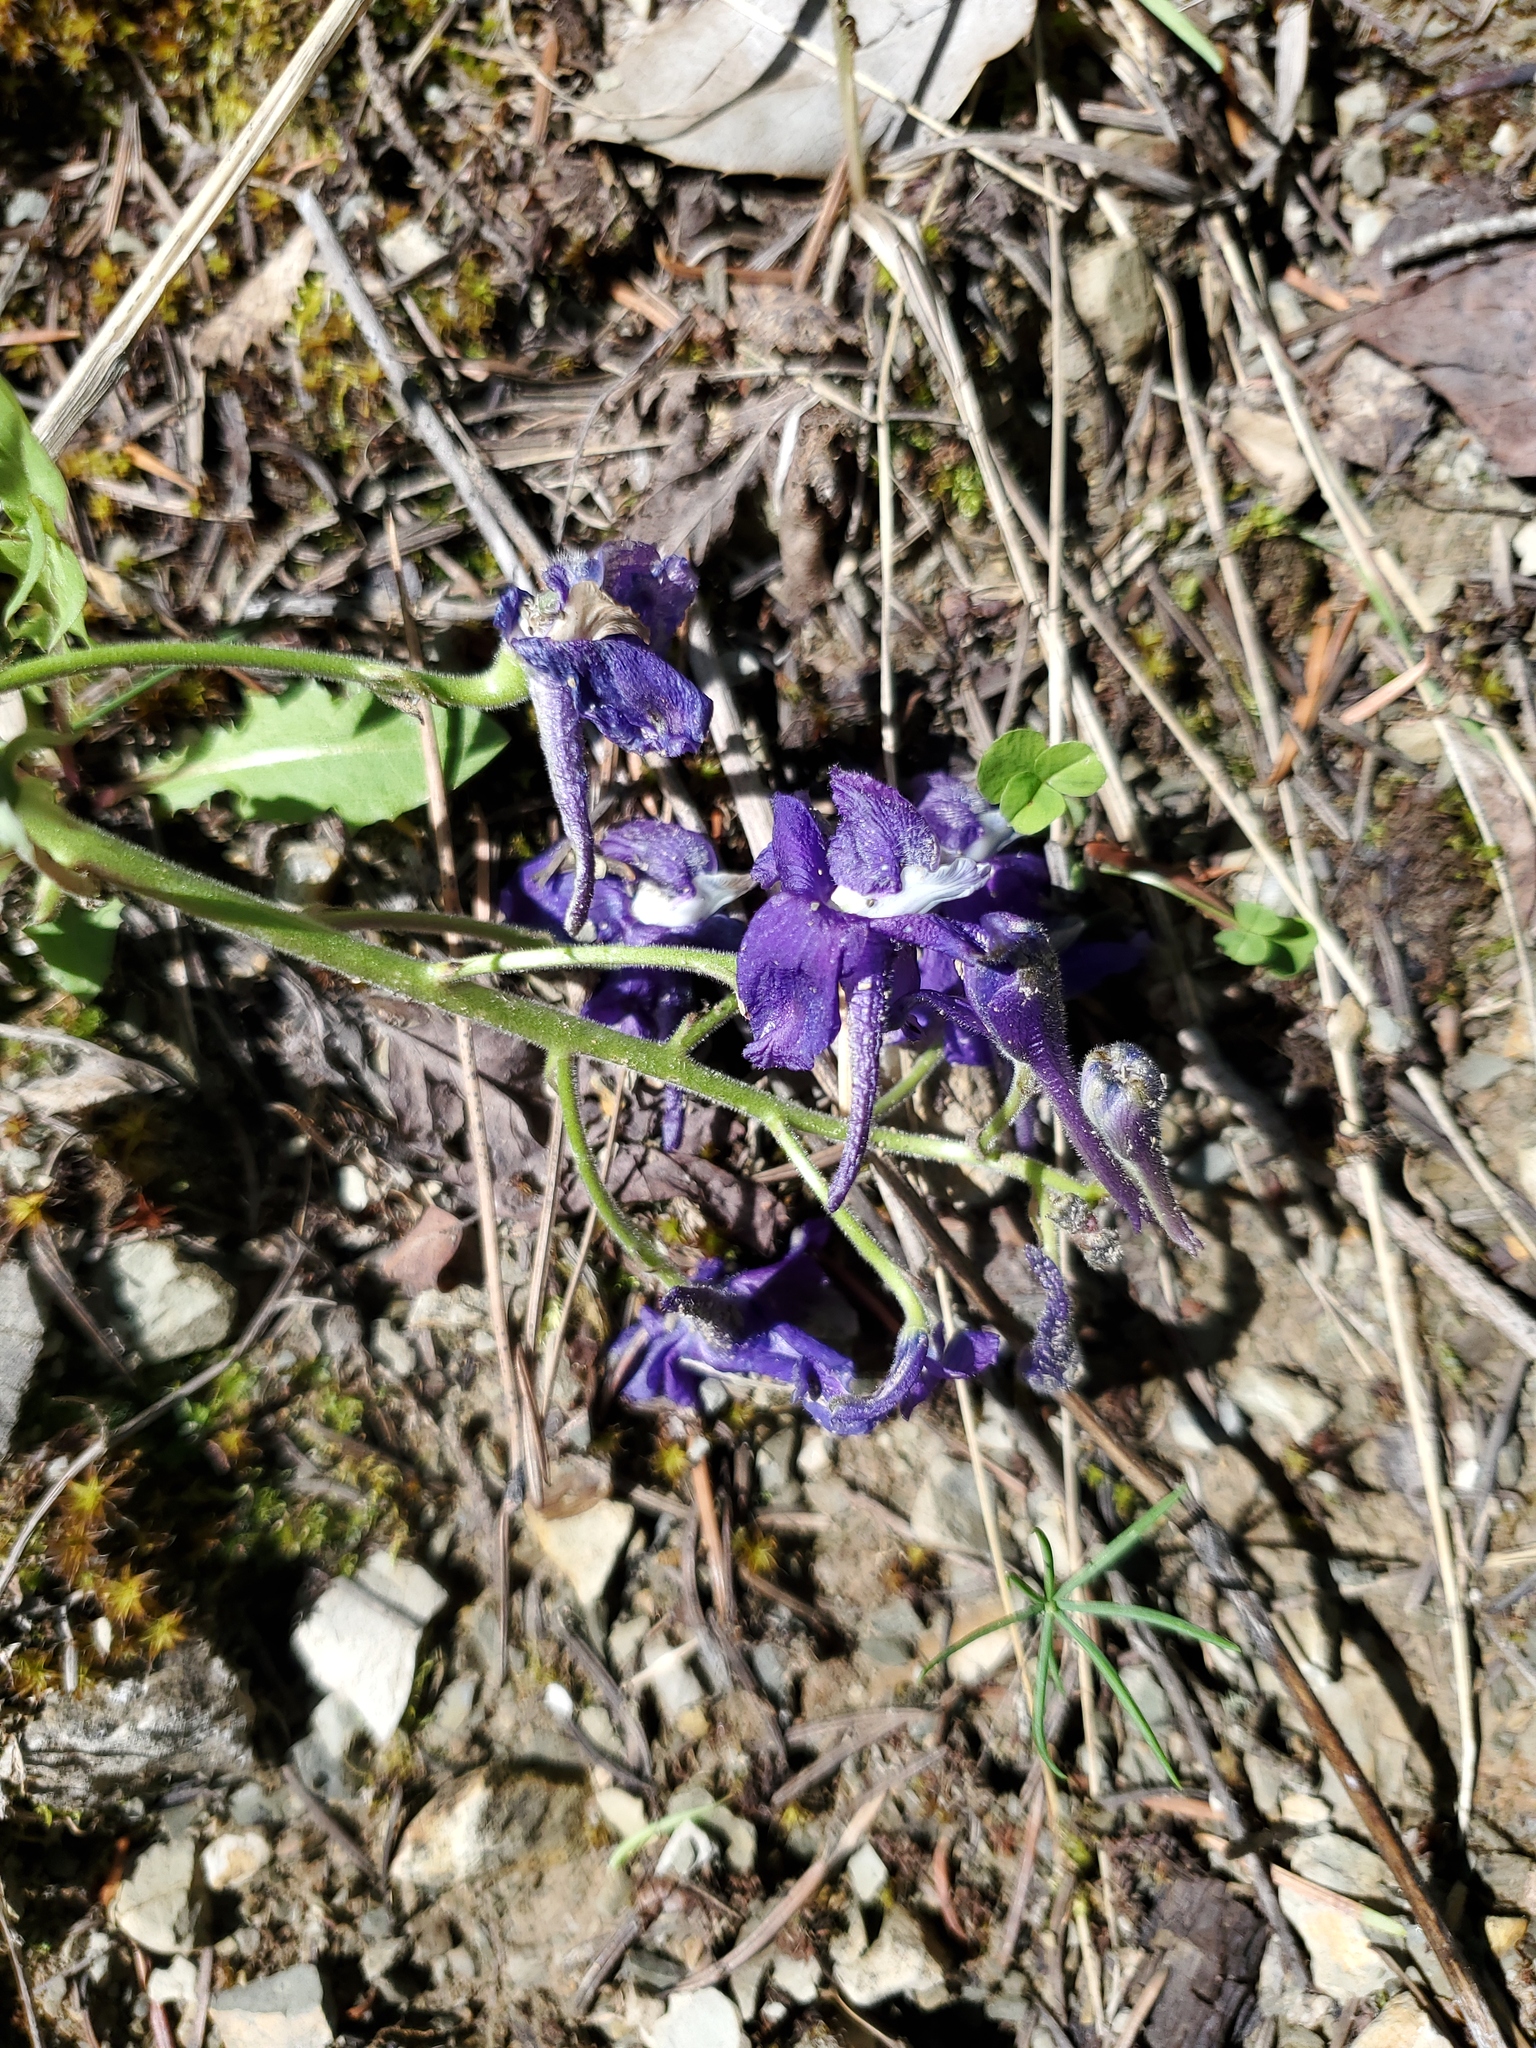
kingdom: Plantae
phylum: Tracheophyta
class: Magnoliopsida
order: Ranunculales
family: Ranunculaceae
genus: Delphinium
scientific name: Delphinium bicolor
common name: Low larkspur
